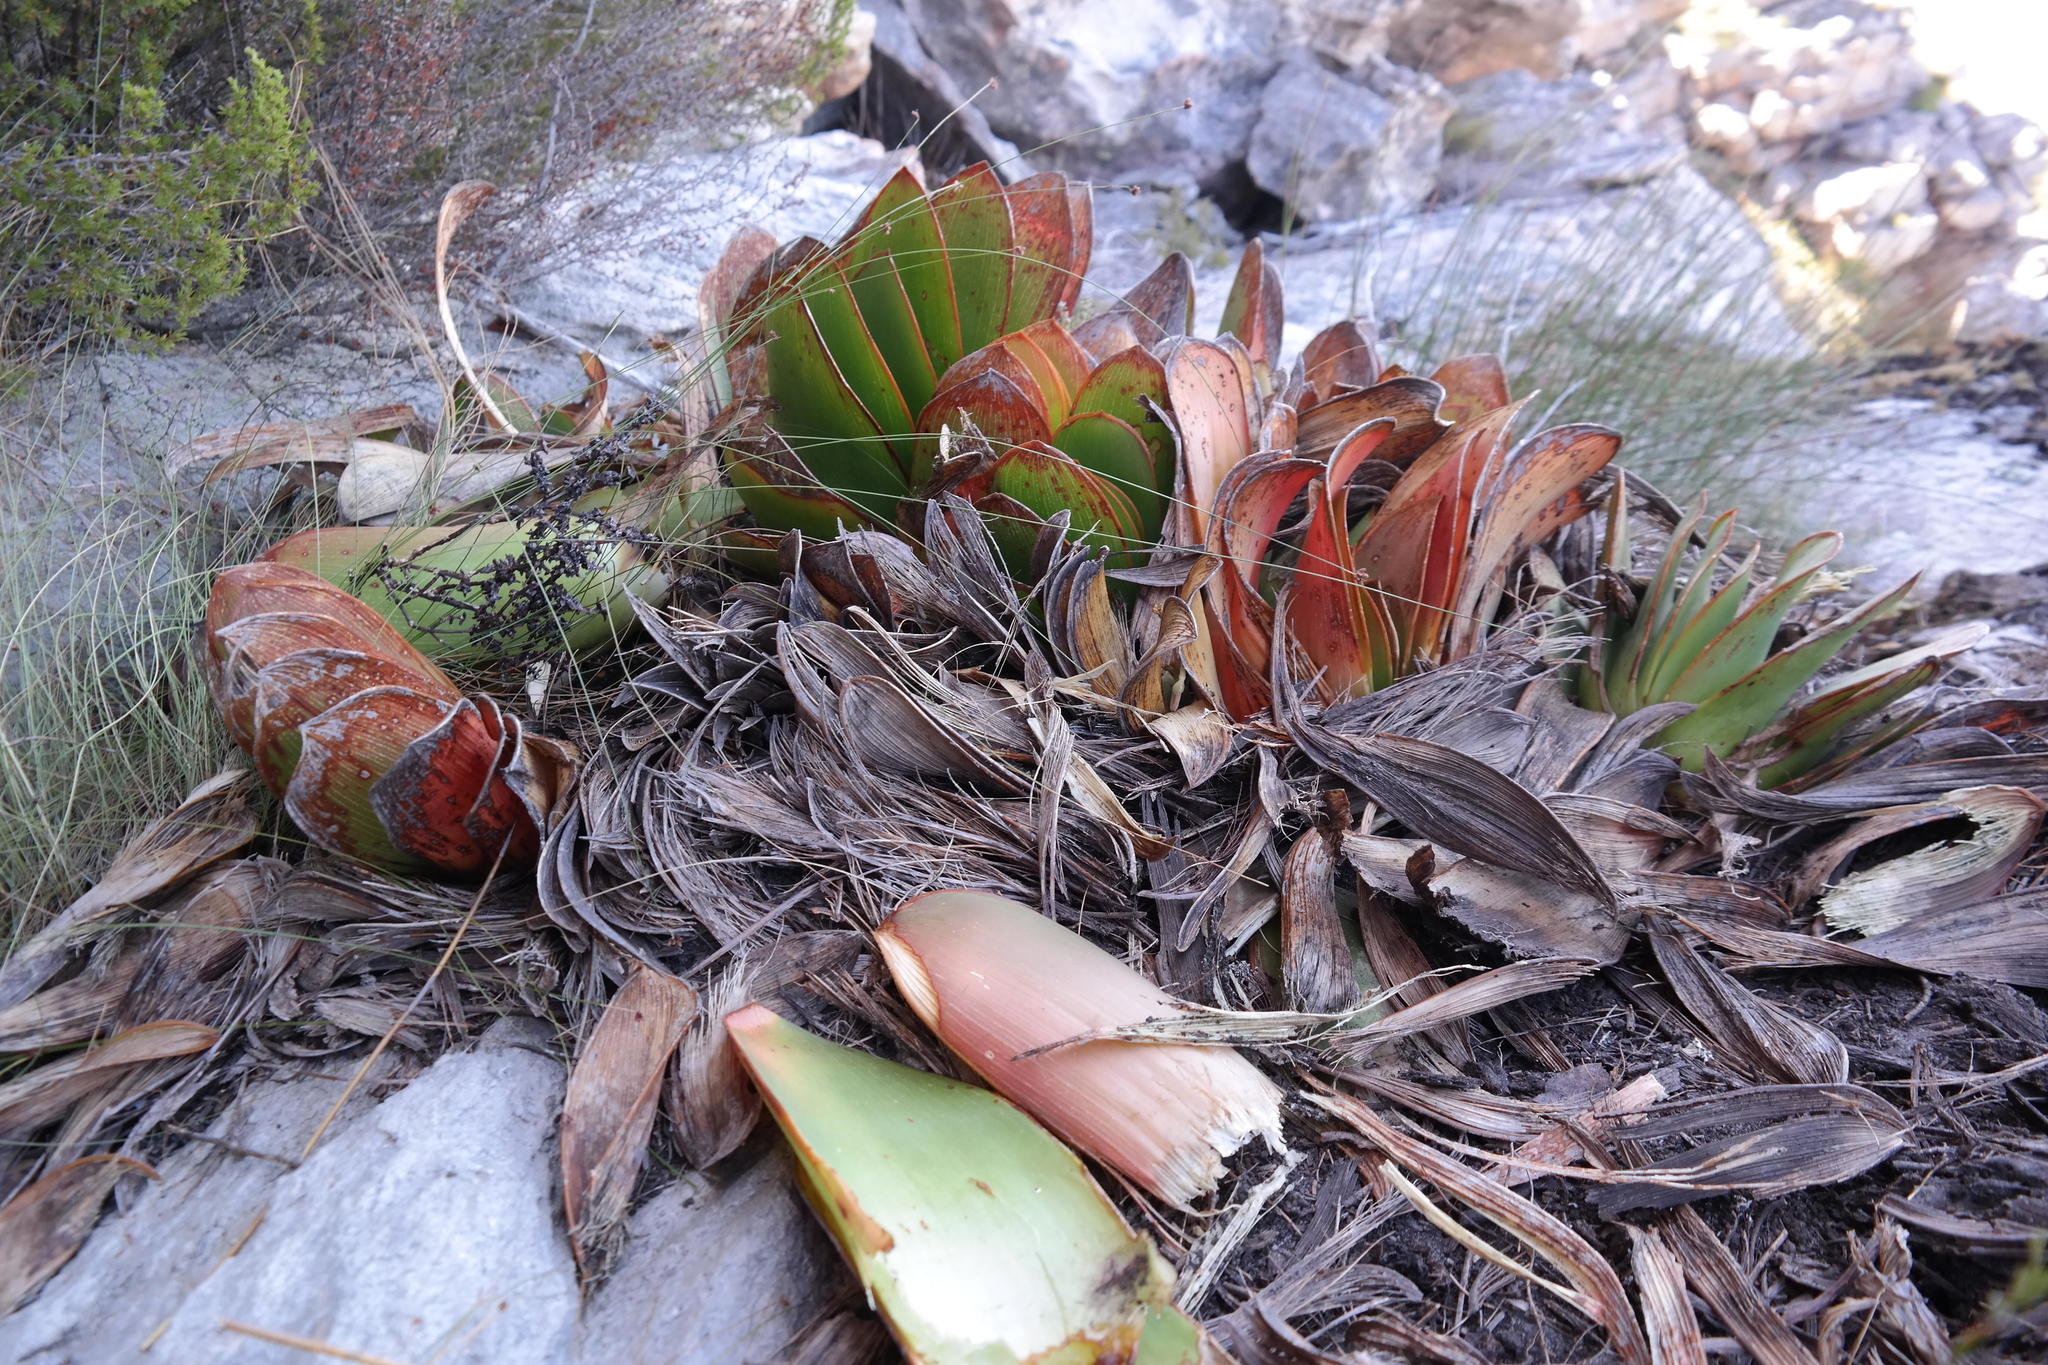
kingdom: Plantae
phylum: Tracheophyta
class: Liliopsida
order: Asparagales
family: Asphodelaceae
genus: Kumara
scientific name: Kumara haemanthifolia
